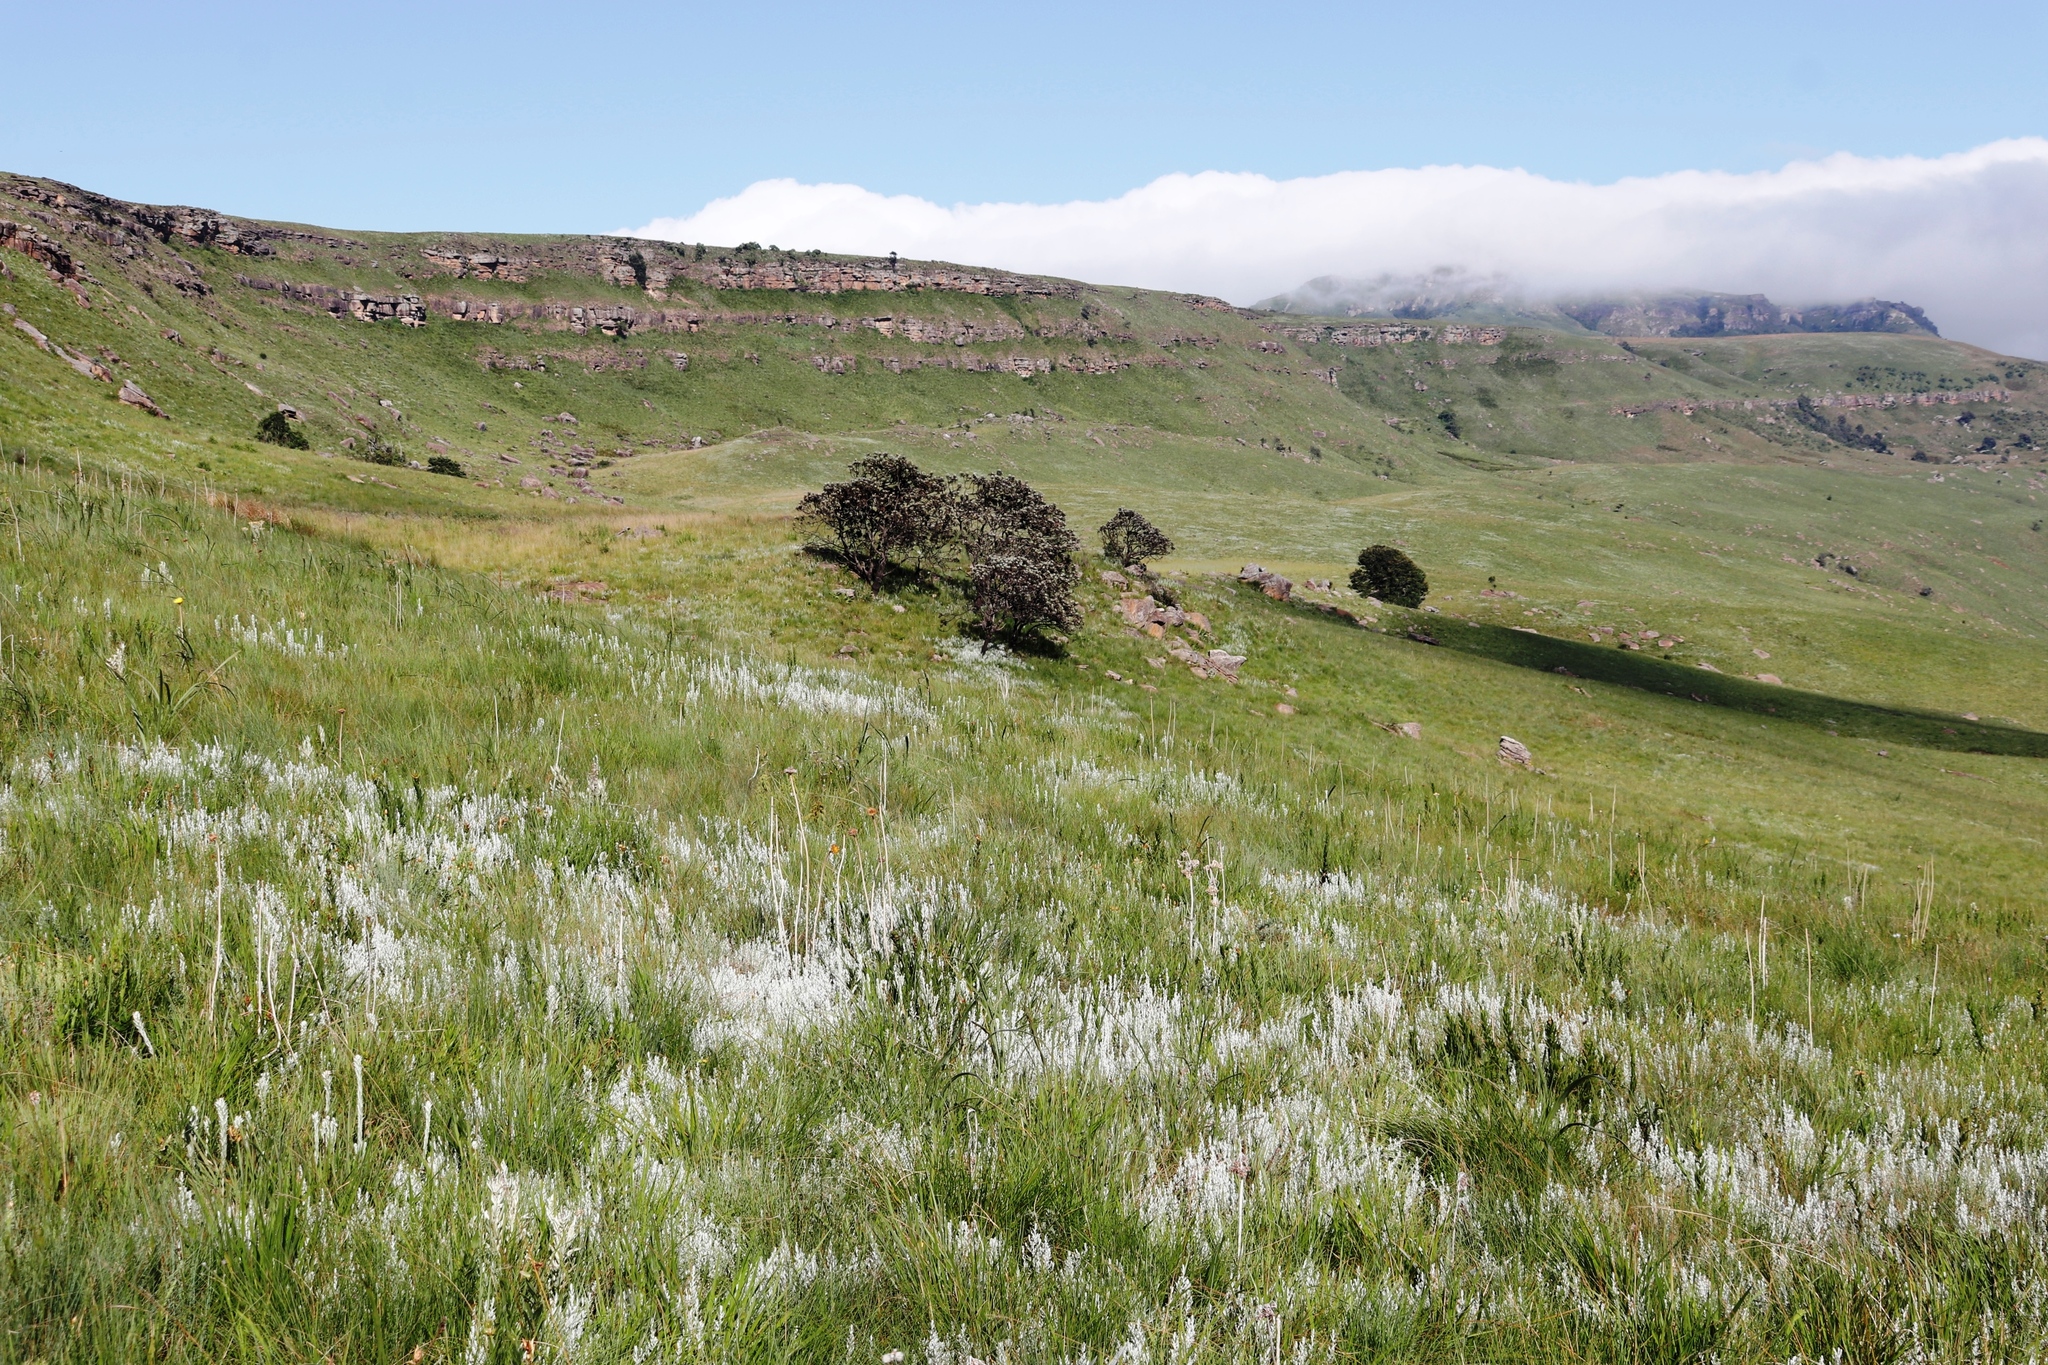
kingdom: Plantae
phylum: Tracheophyta
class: Magnoliopsida
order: Proteales
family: Proteaceae
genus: Protea
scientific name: Protea roupelliae
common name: Silver sugarbush
